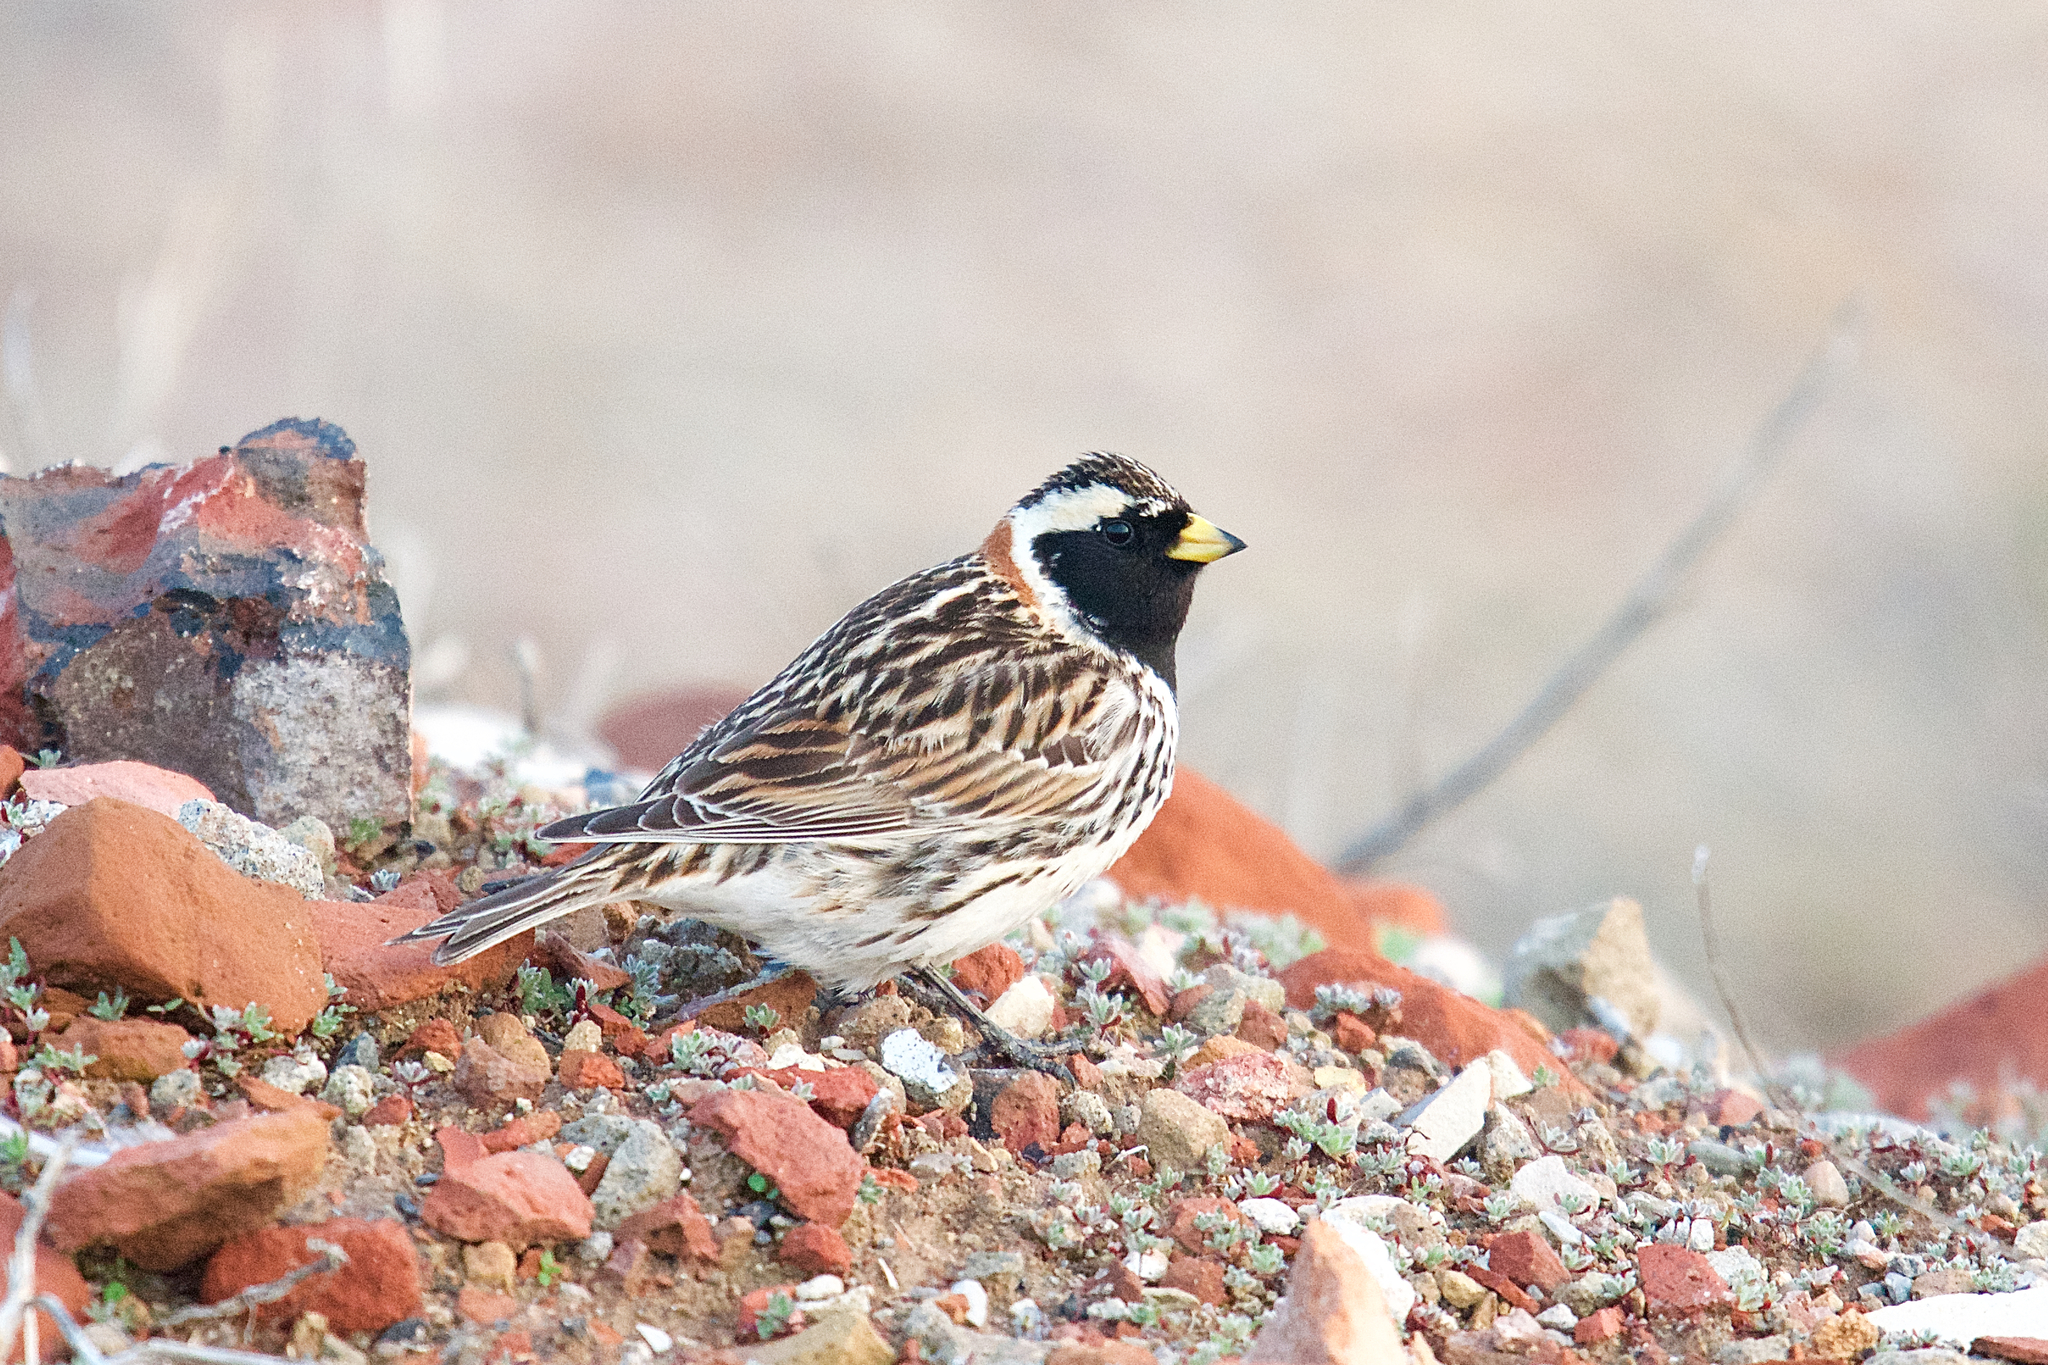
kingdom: Animalia
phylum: Chordata
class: Aves
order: Passeriformes
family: Calcariidae
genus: Calcarius
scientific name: Calcarius lapponicus
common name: Lapland longspur
